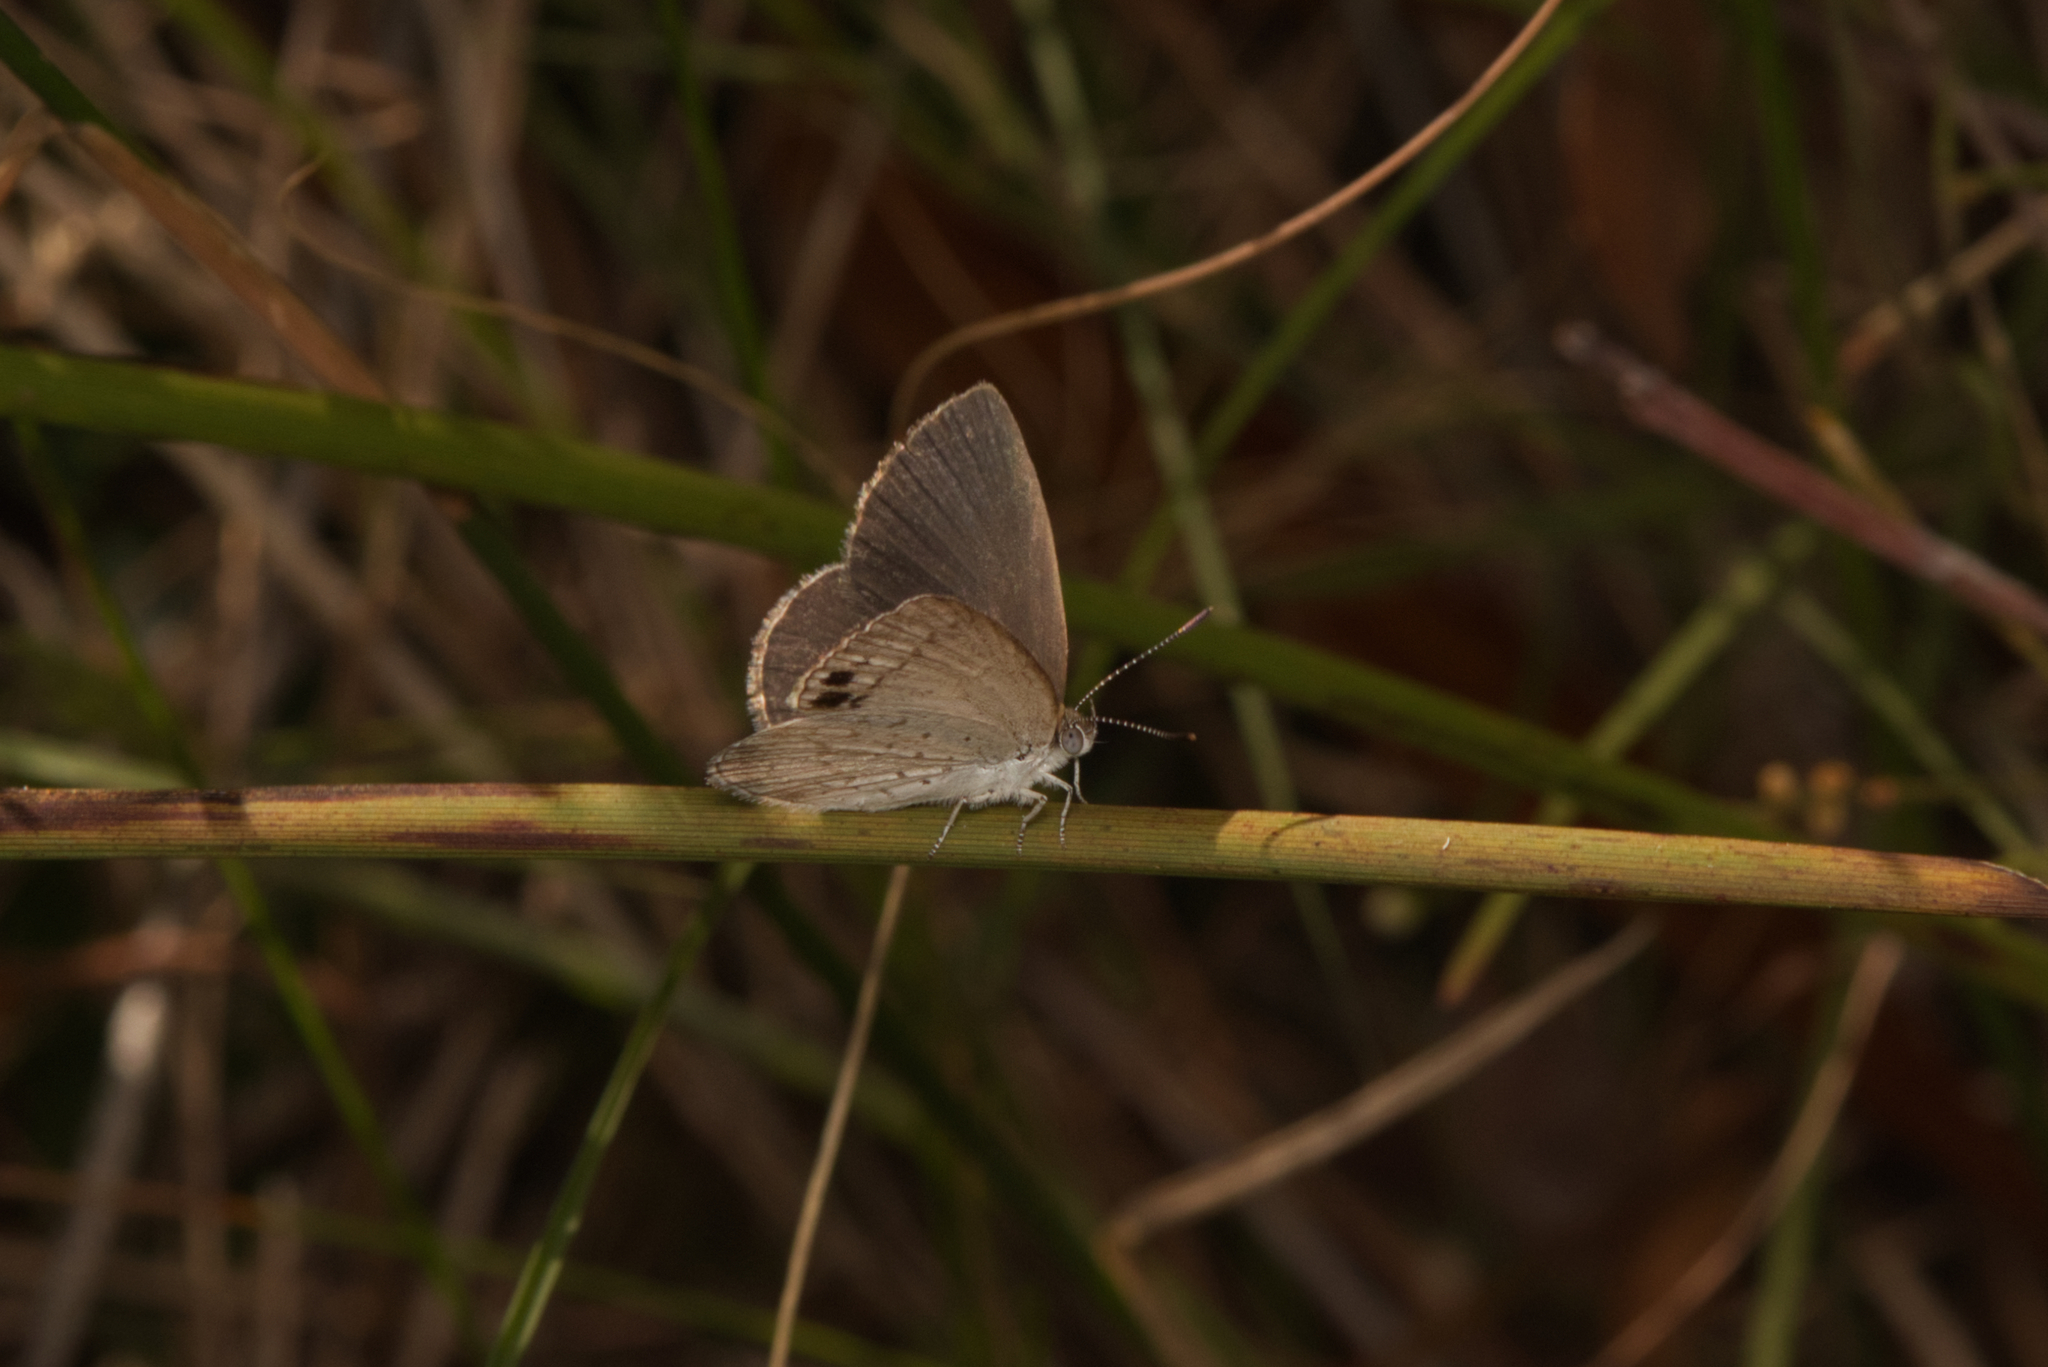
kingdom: Animalia
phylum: Arthropoda
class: Insecta
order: Lepidoptera
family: Lycaenidae
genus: Candalides
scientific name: Candalides
